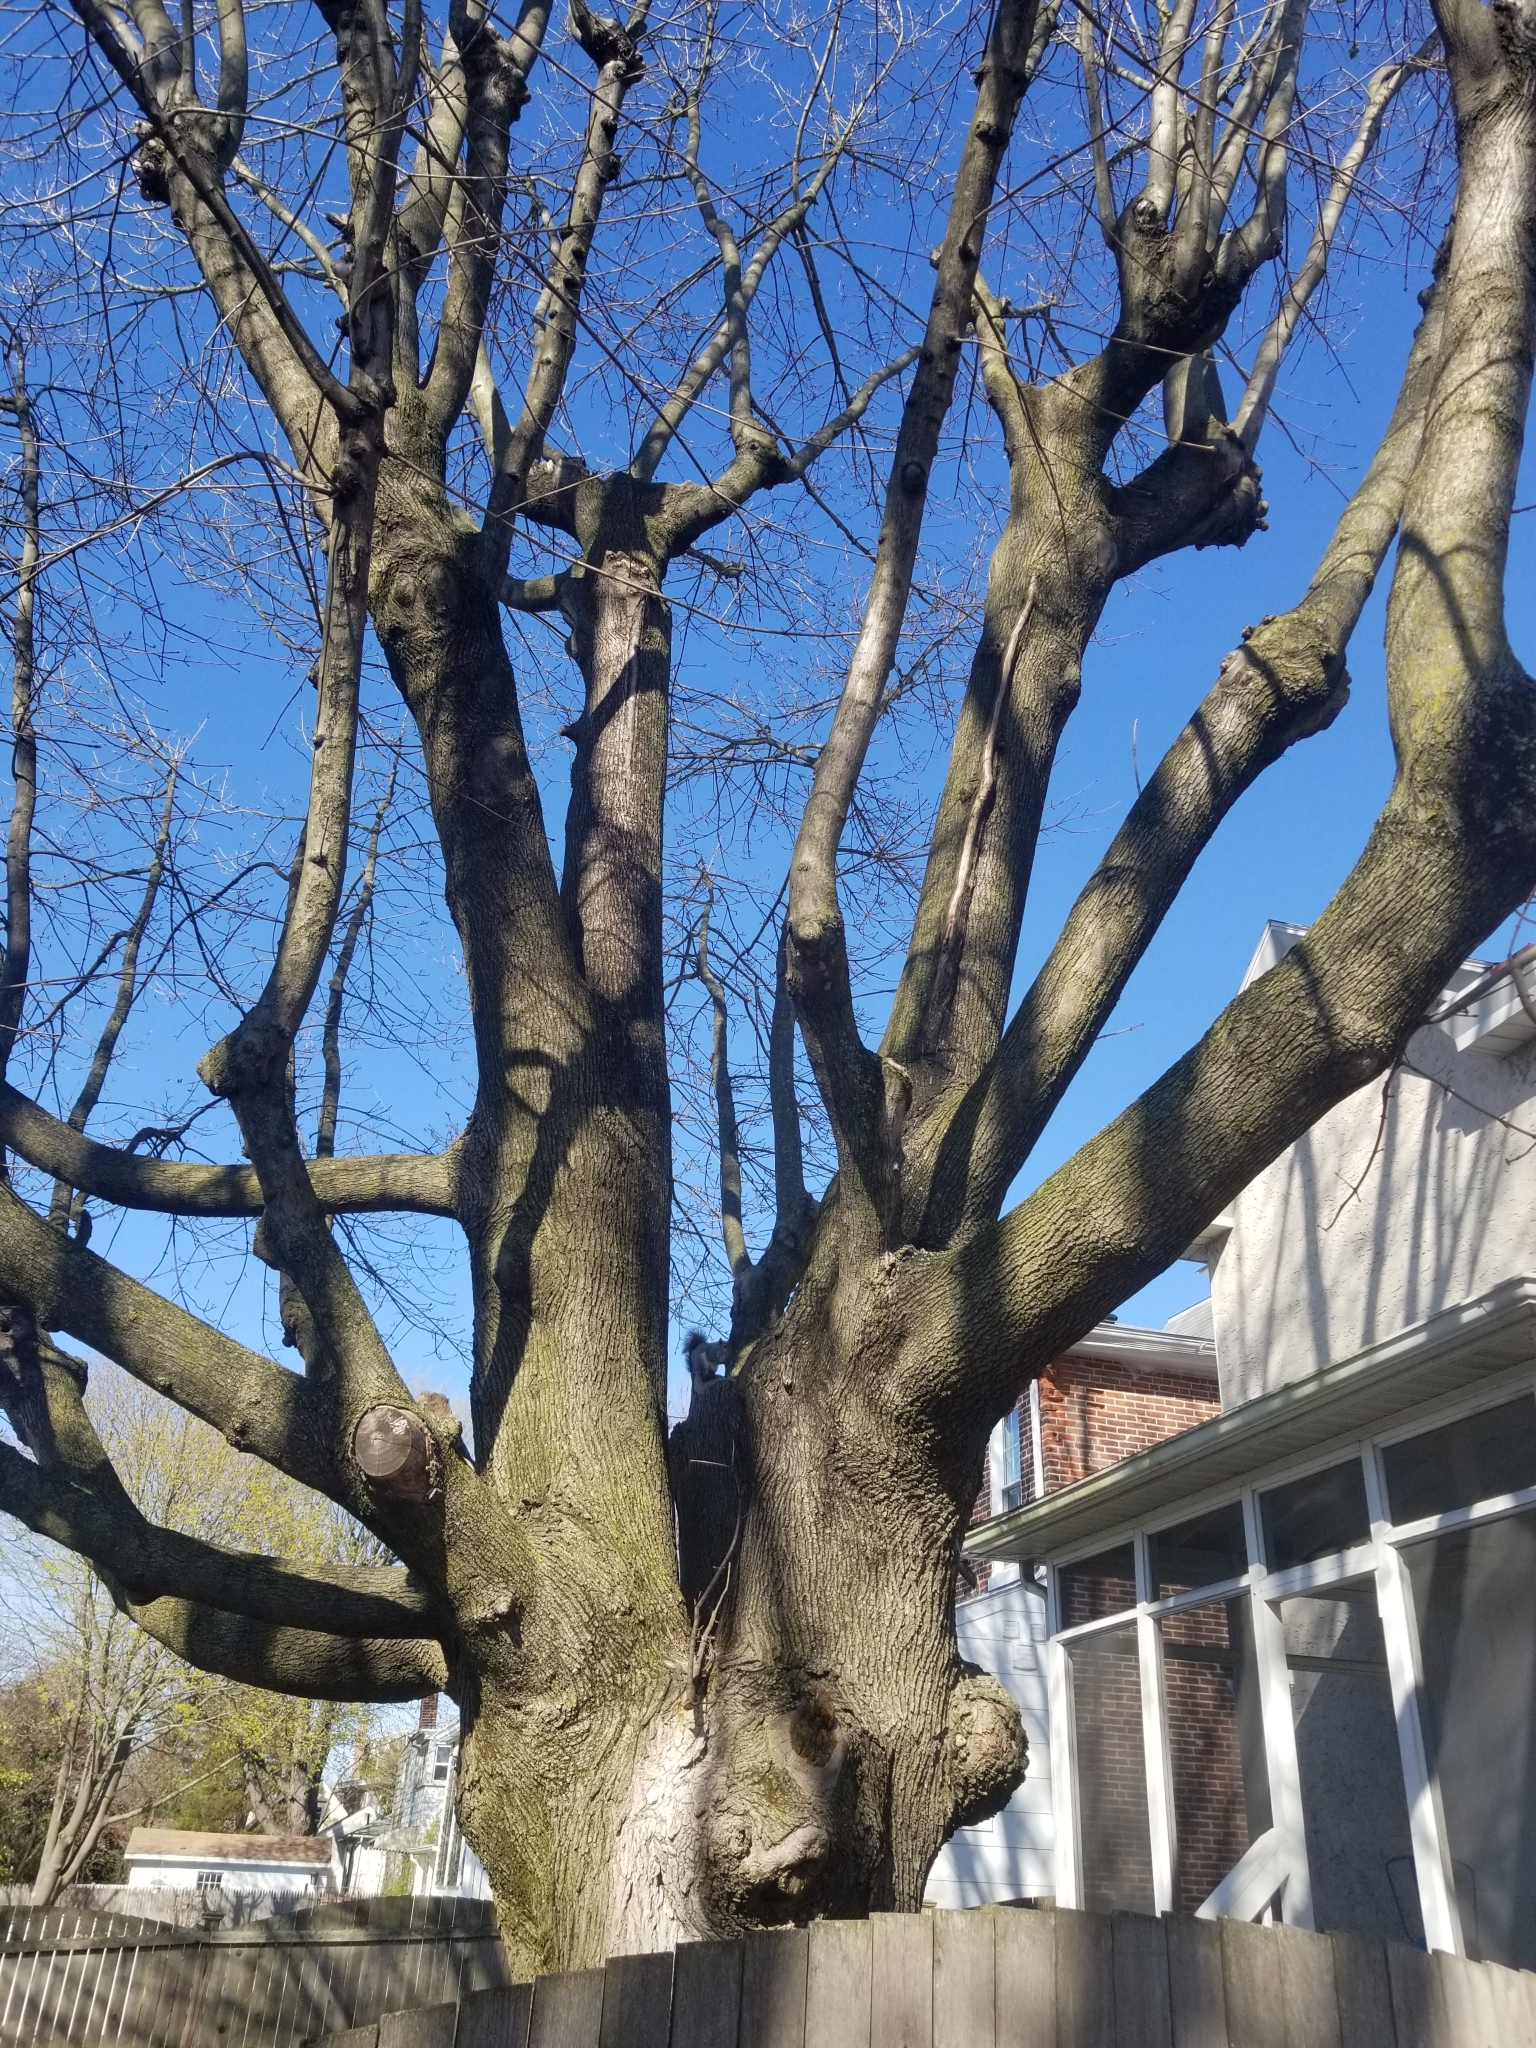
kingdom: Animalia
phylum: Chordata
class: Mammalia
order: Rodentia
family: Sciuridae
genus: Sciurus
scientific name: Sciurus carolinensis
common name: Eastern gray squirrel
